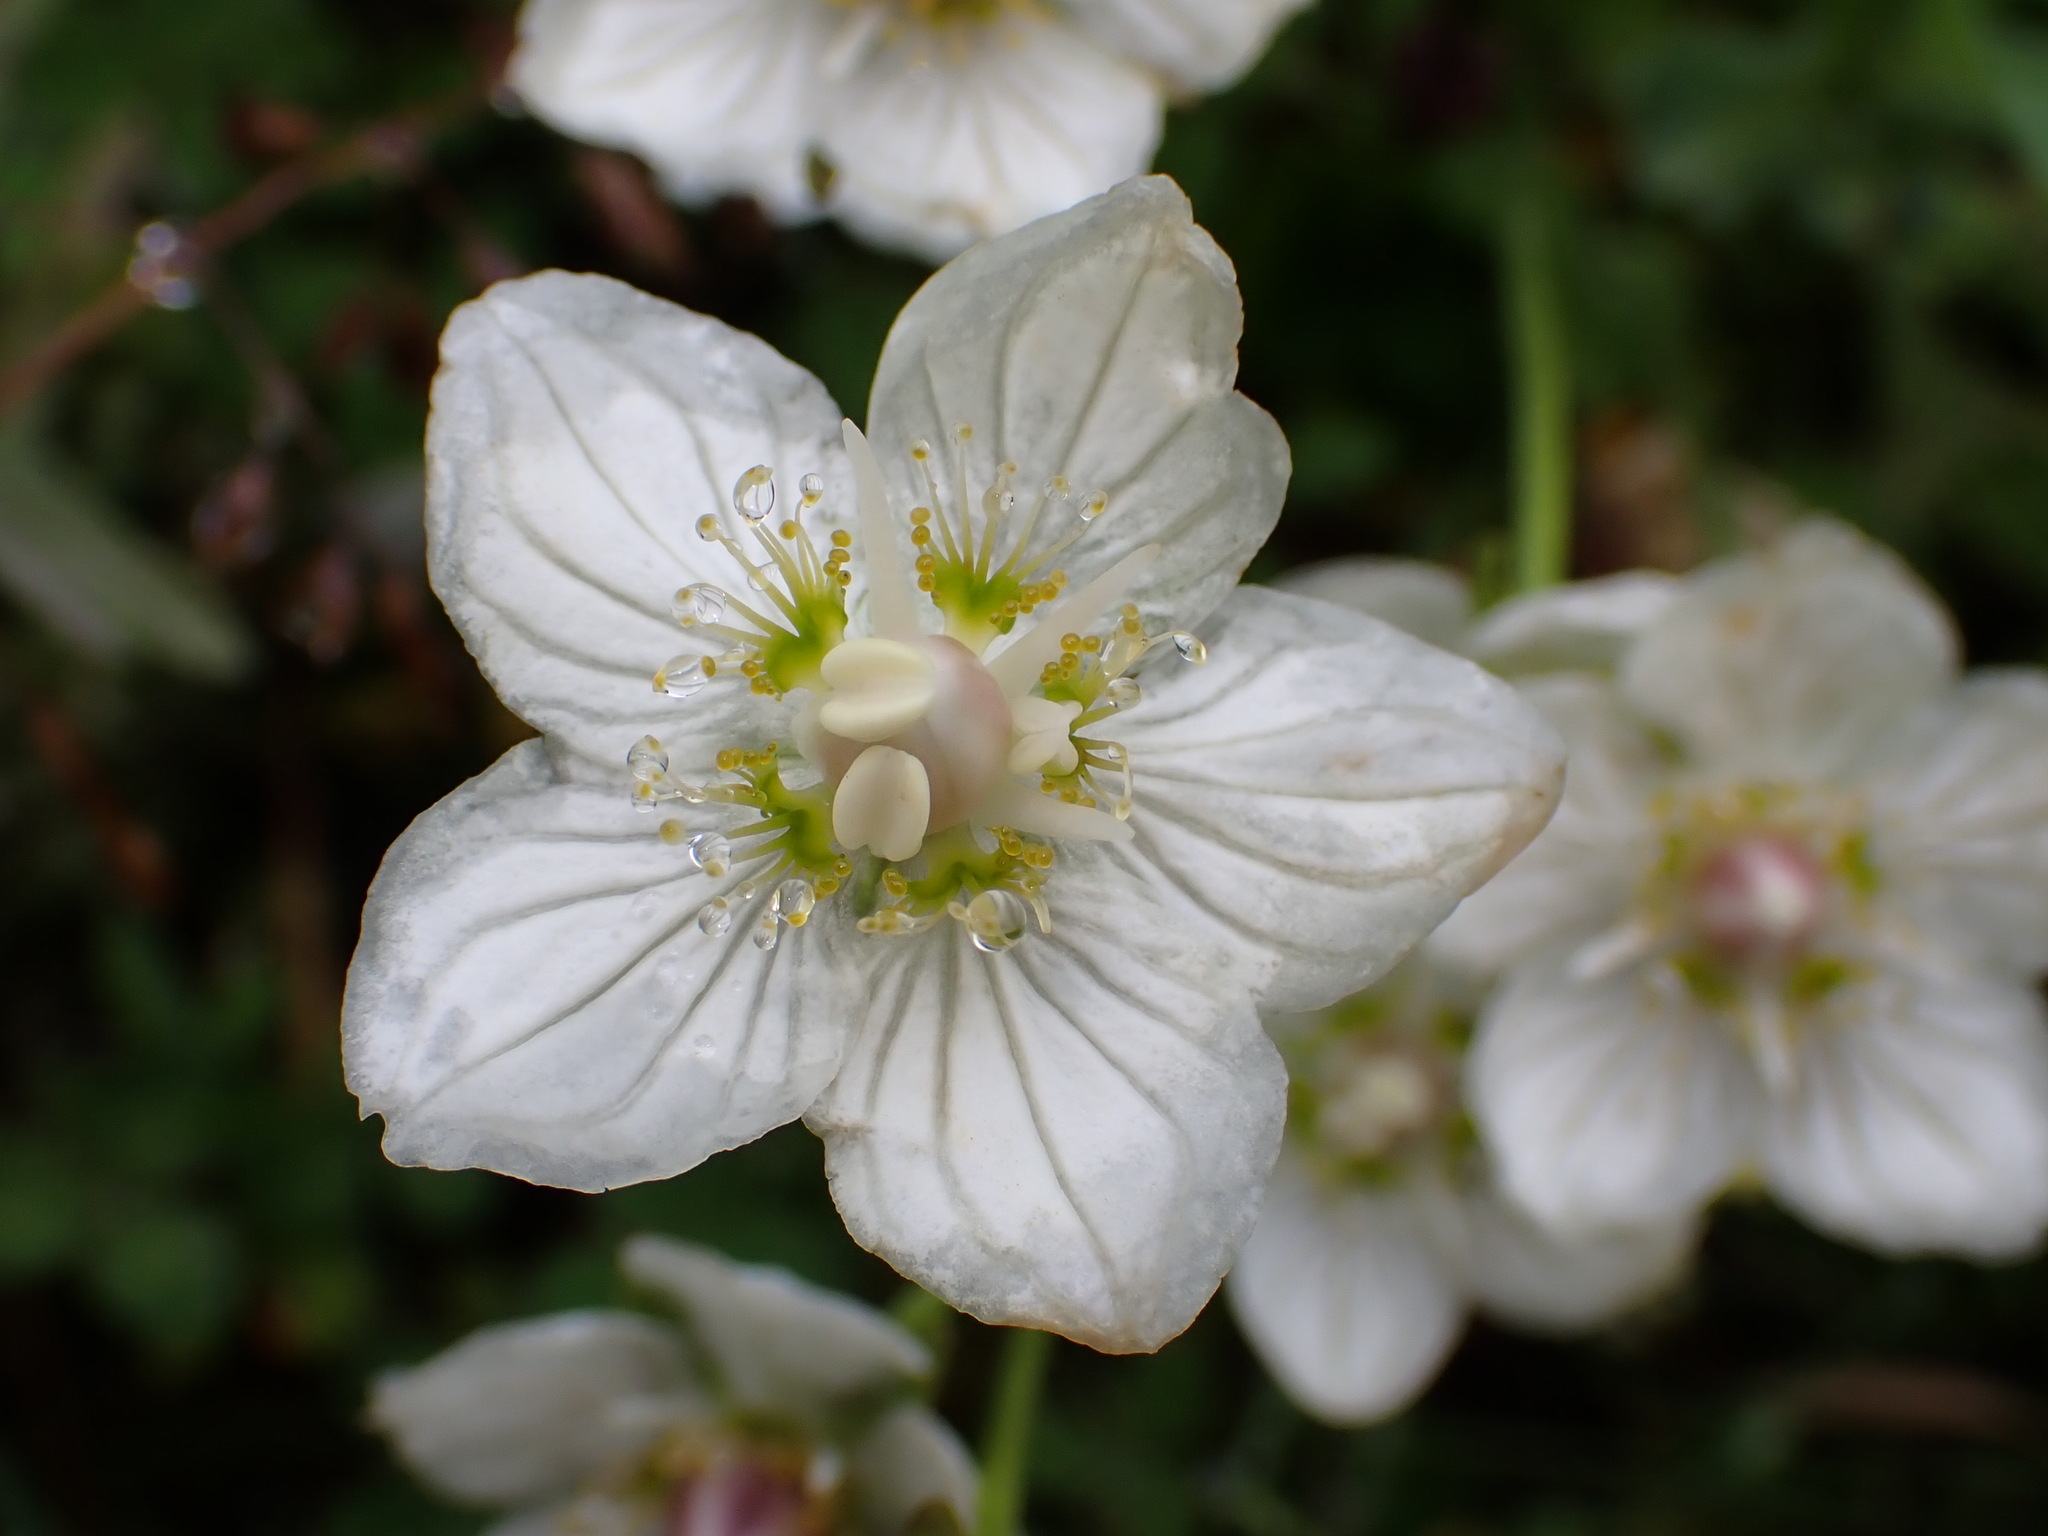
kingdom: Plantae
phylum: Tracheophyta
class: Magnoliopsida
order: Celastrales
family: Parnassiaceae
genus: Parnassia
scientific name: Parnassia palustris
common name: Grass-of-parnassus
